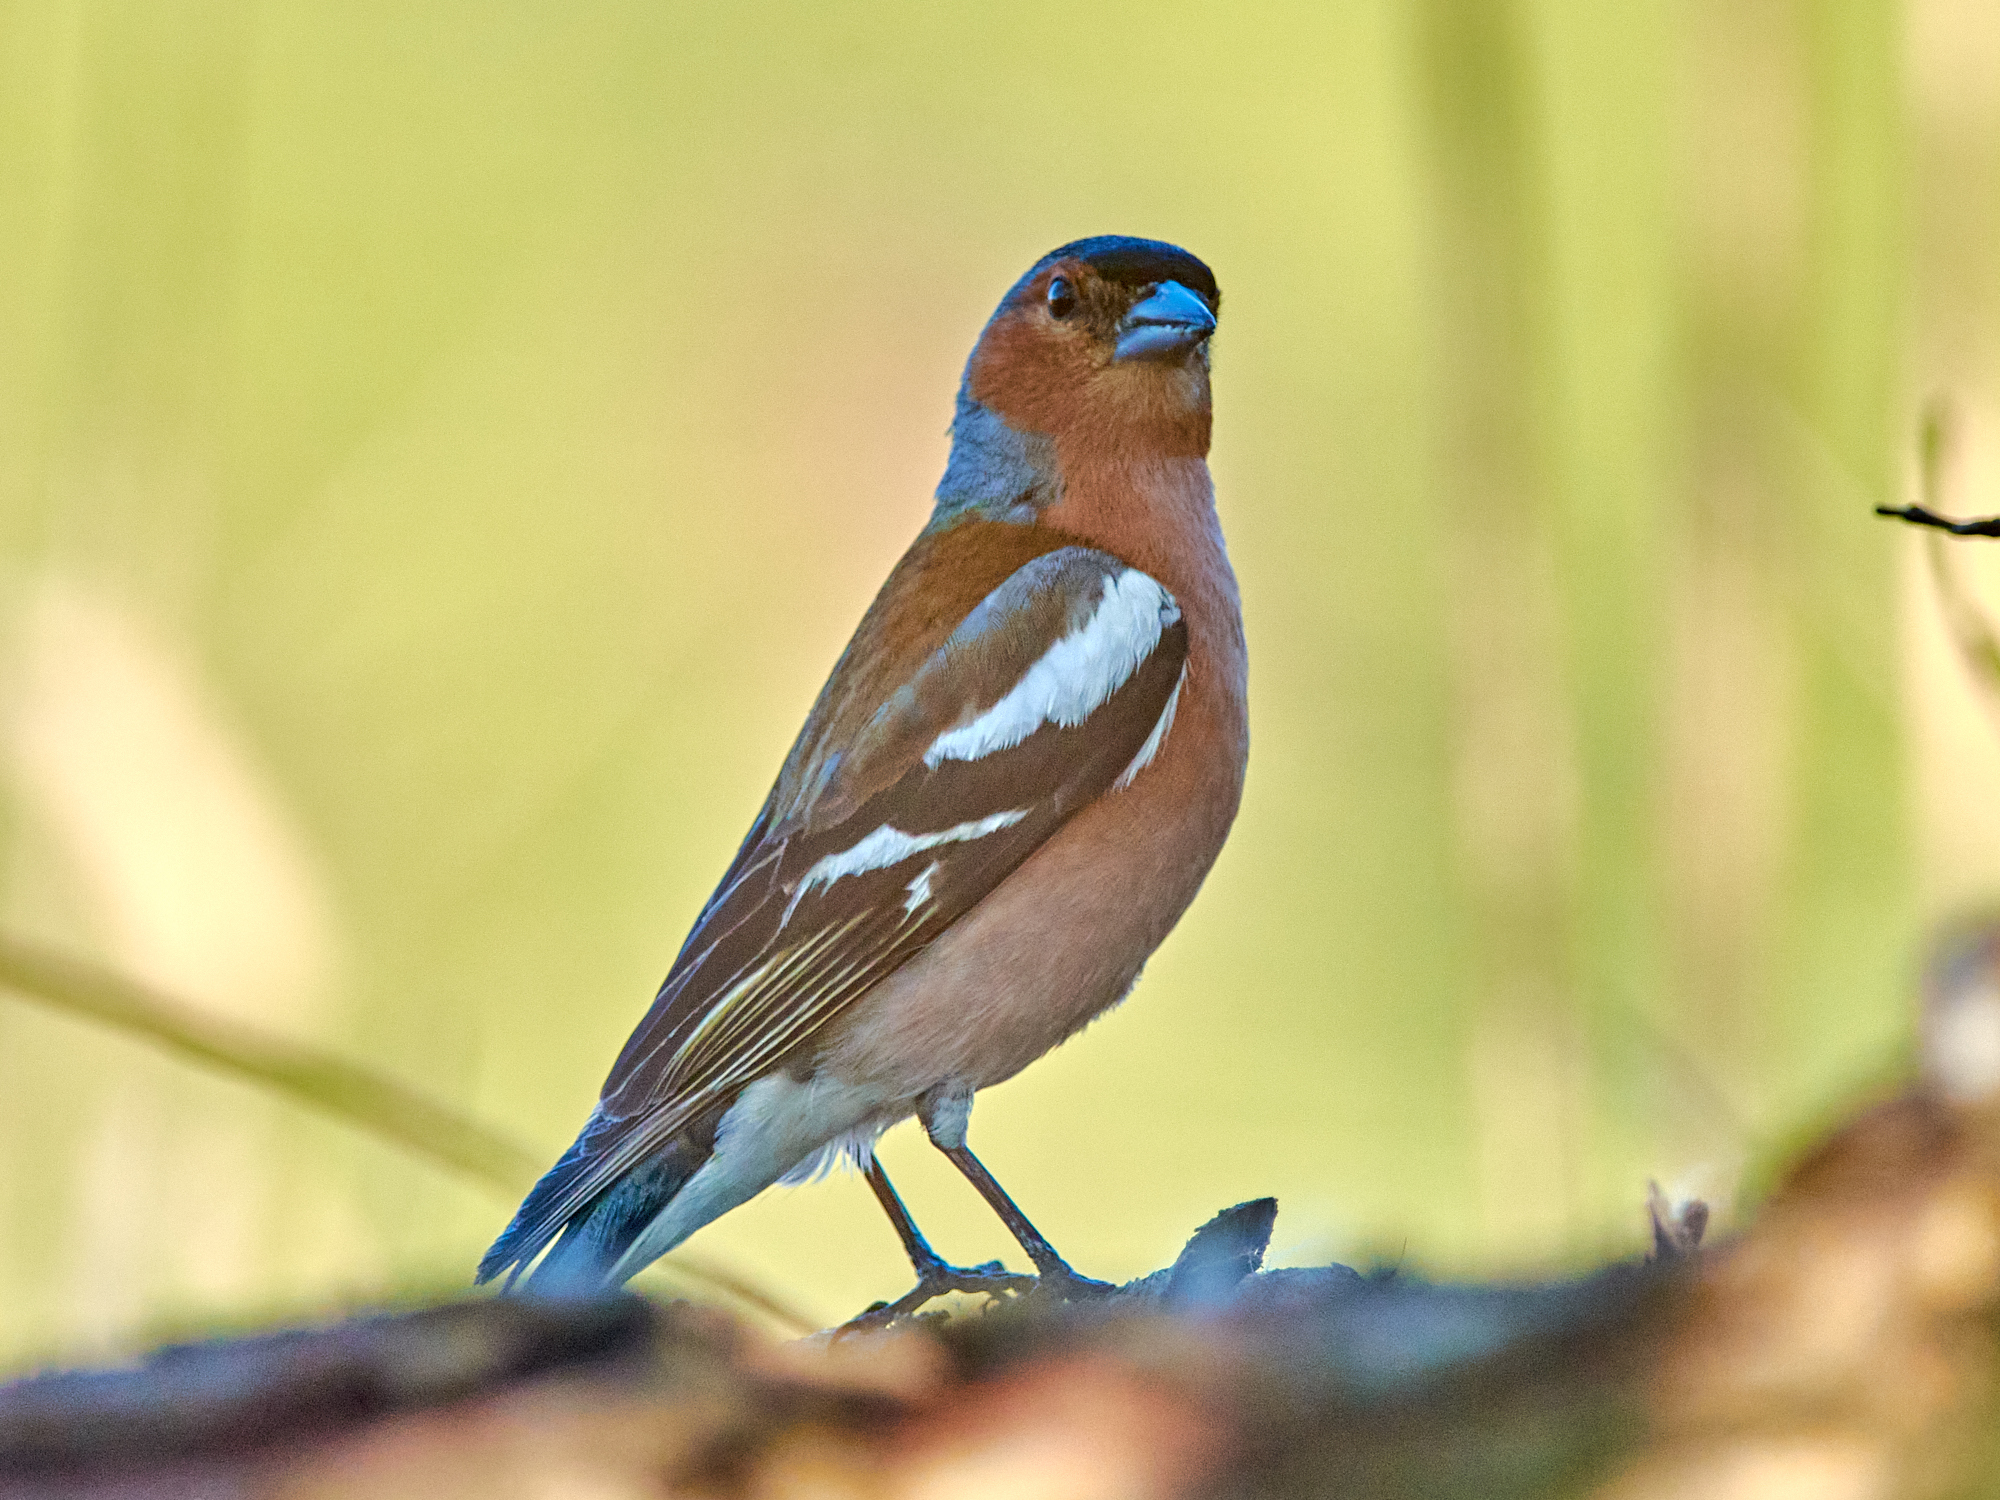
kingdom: Animalia
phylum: Chordata
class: Aves
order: Passeriformes
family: Fringillidae
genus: Fringilla
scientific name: Fringilla coelebs
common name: Common chaffinch
